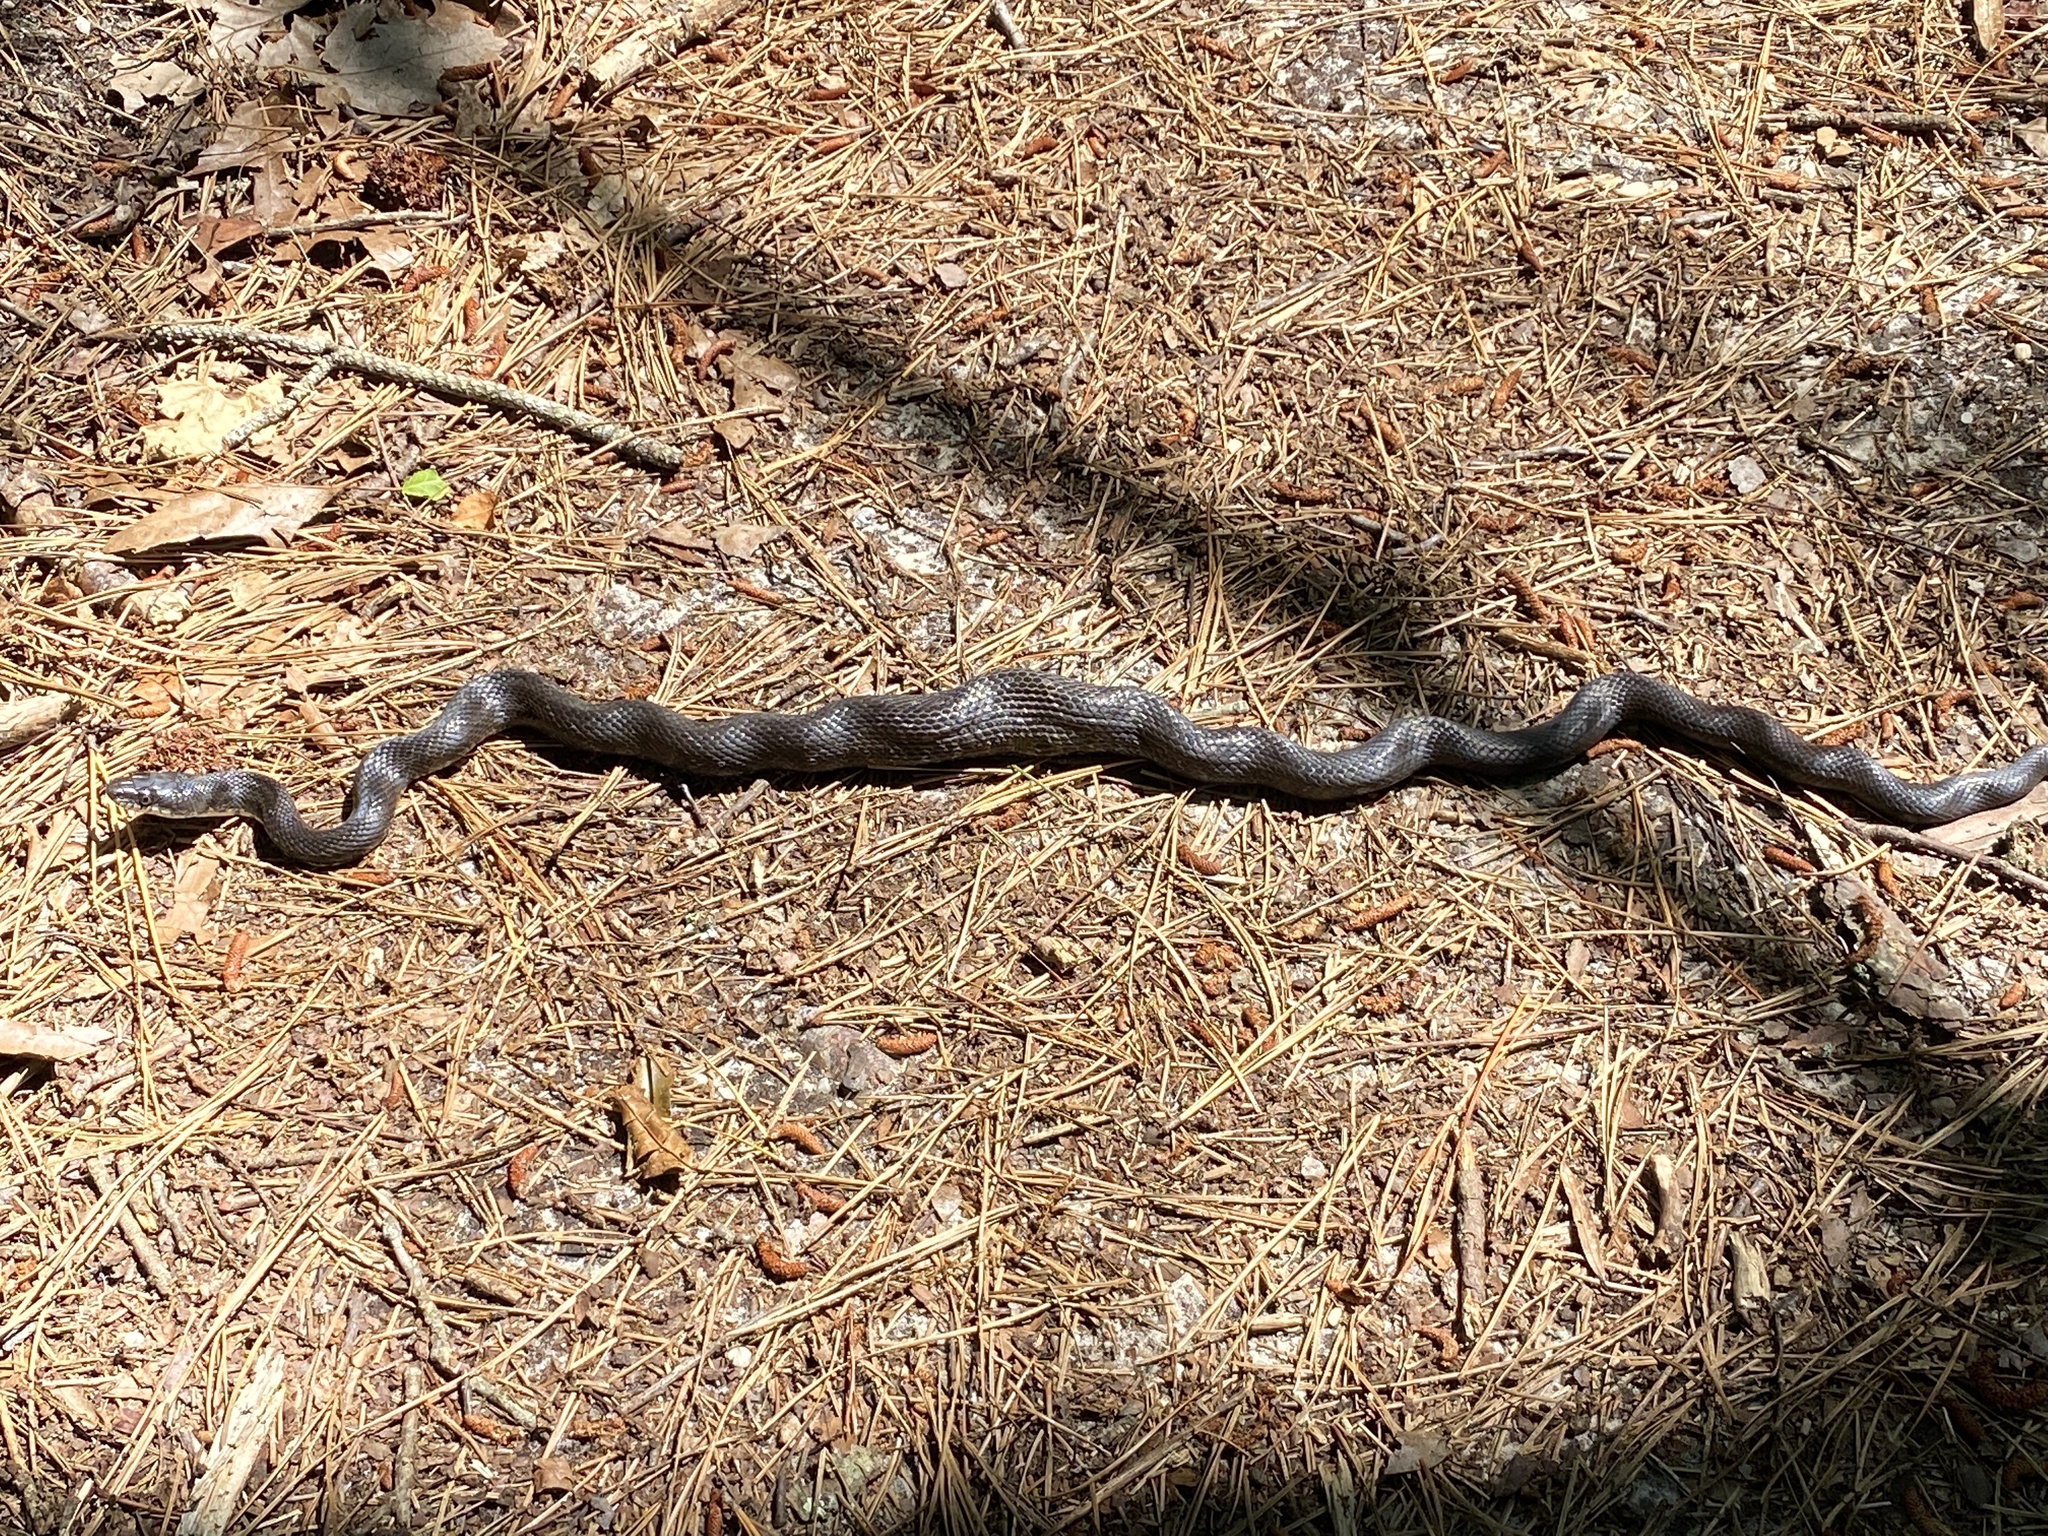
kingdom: Animalia
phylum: Chordata
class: Squamata
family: Colubridae
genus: Pantherophis
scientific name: Pantherophis alleghaniensis
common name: Eastern rat snake
